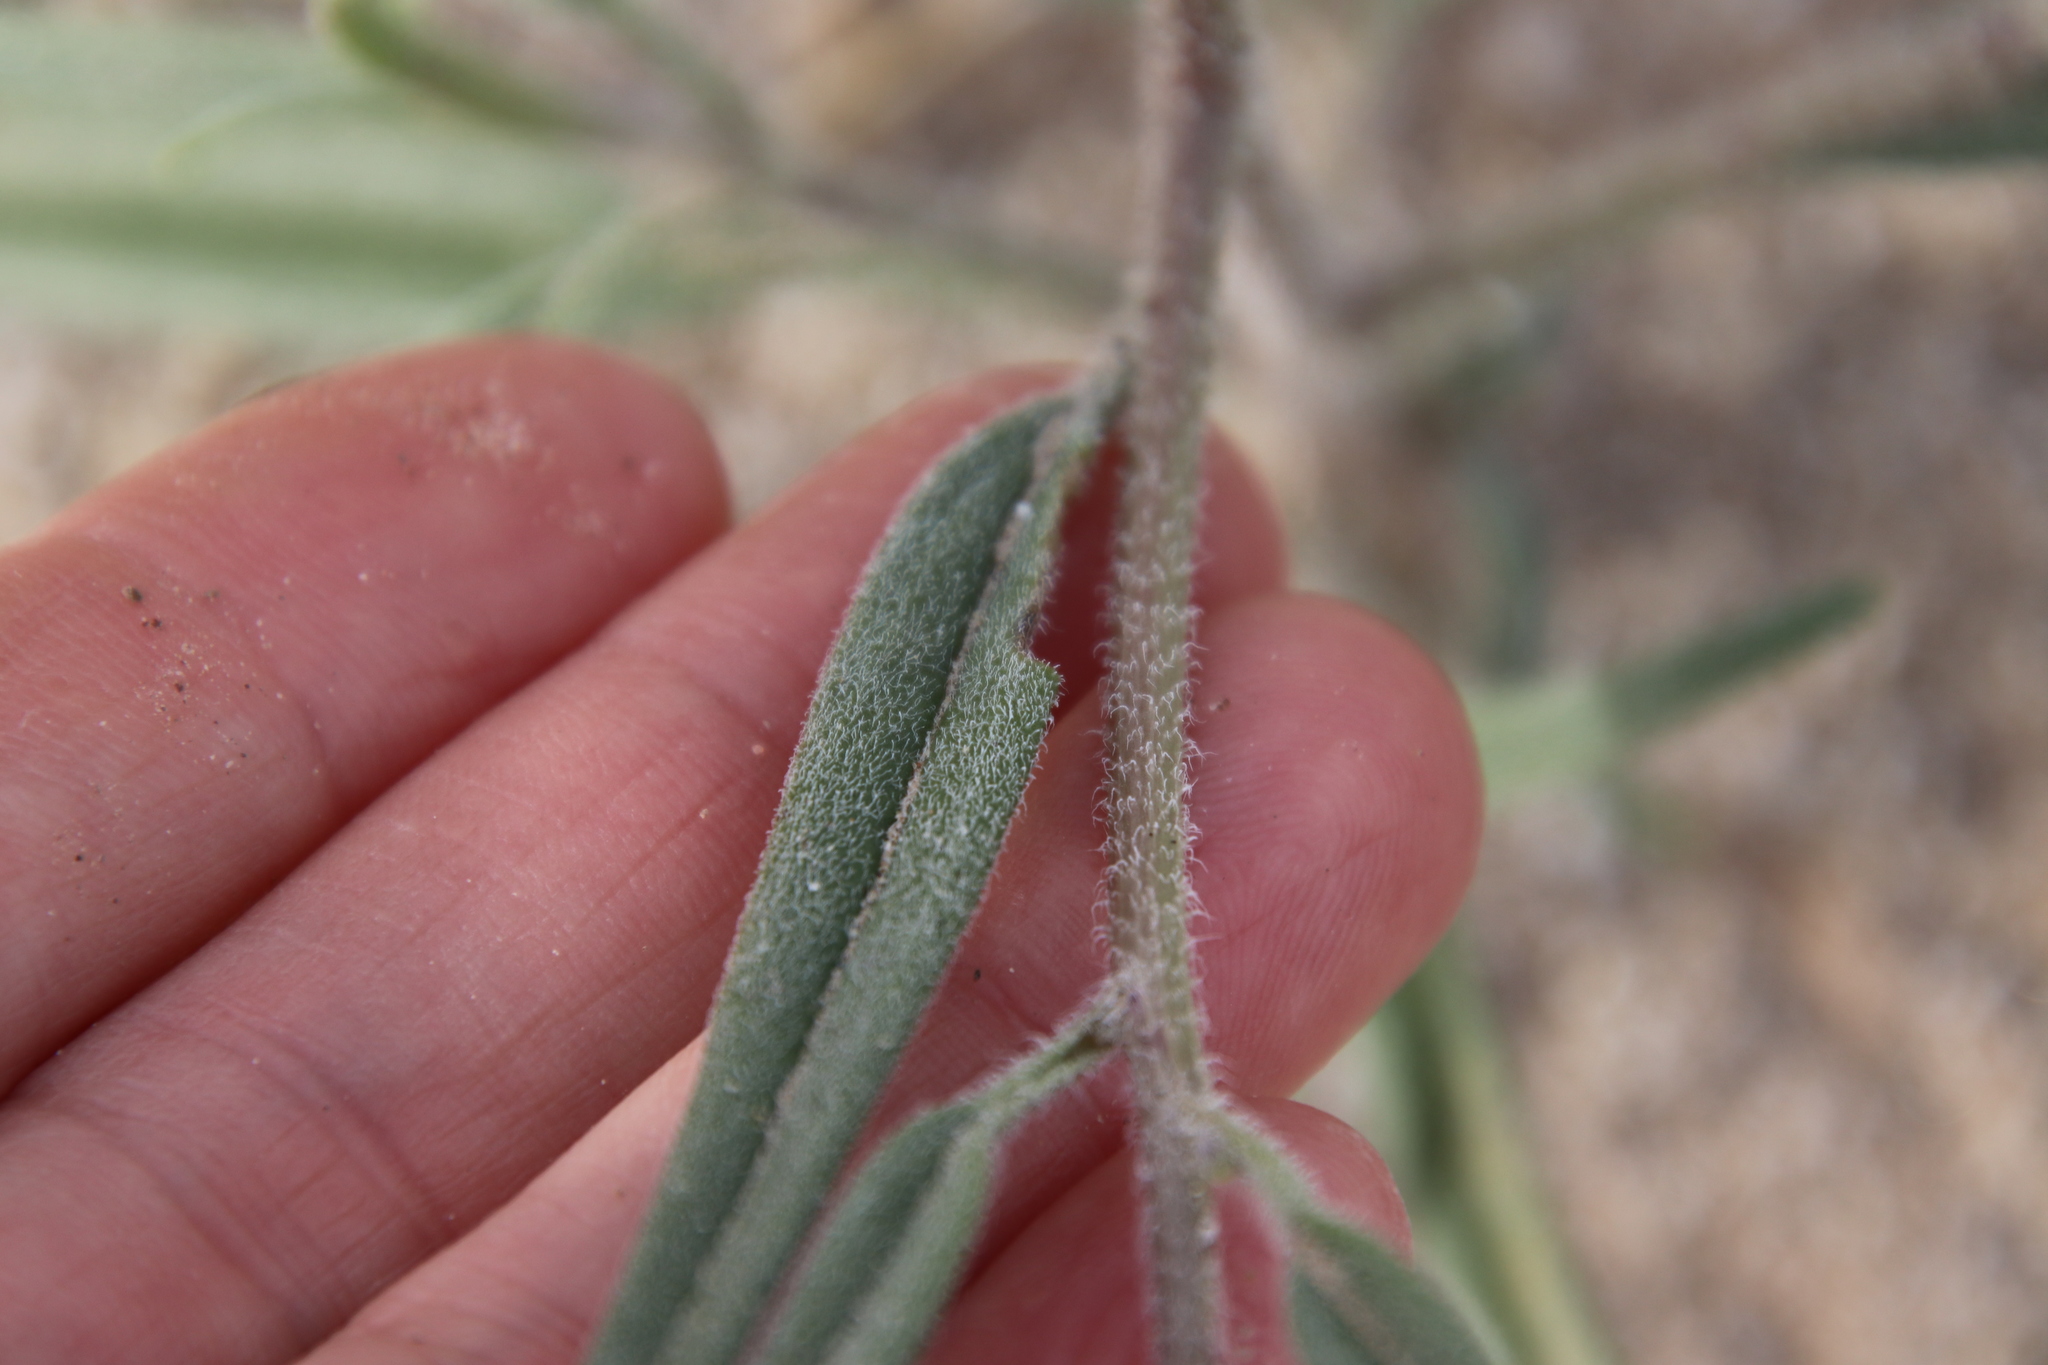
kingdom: Plantae
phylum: Tracheophyta
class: Magnoliopsida
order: Asterales
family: Asteraceae
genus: Palafoxia
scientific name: Palafoxia arida
